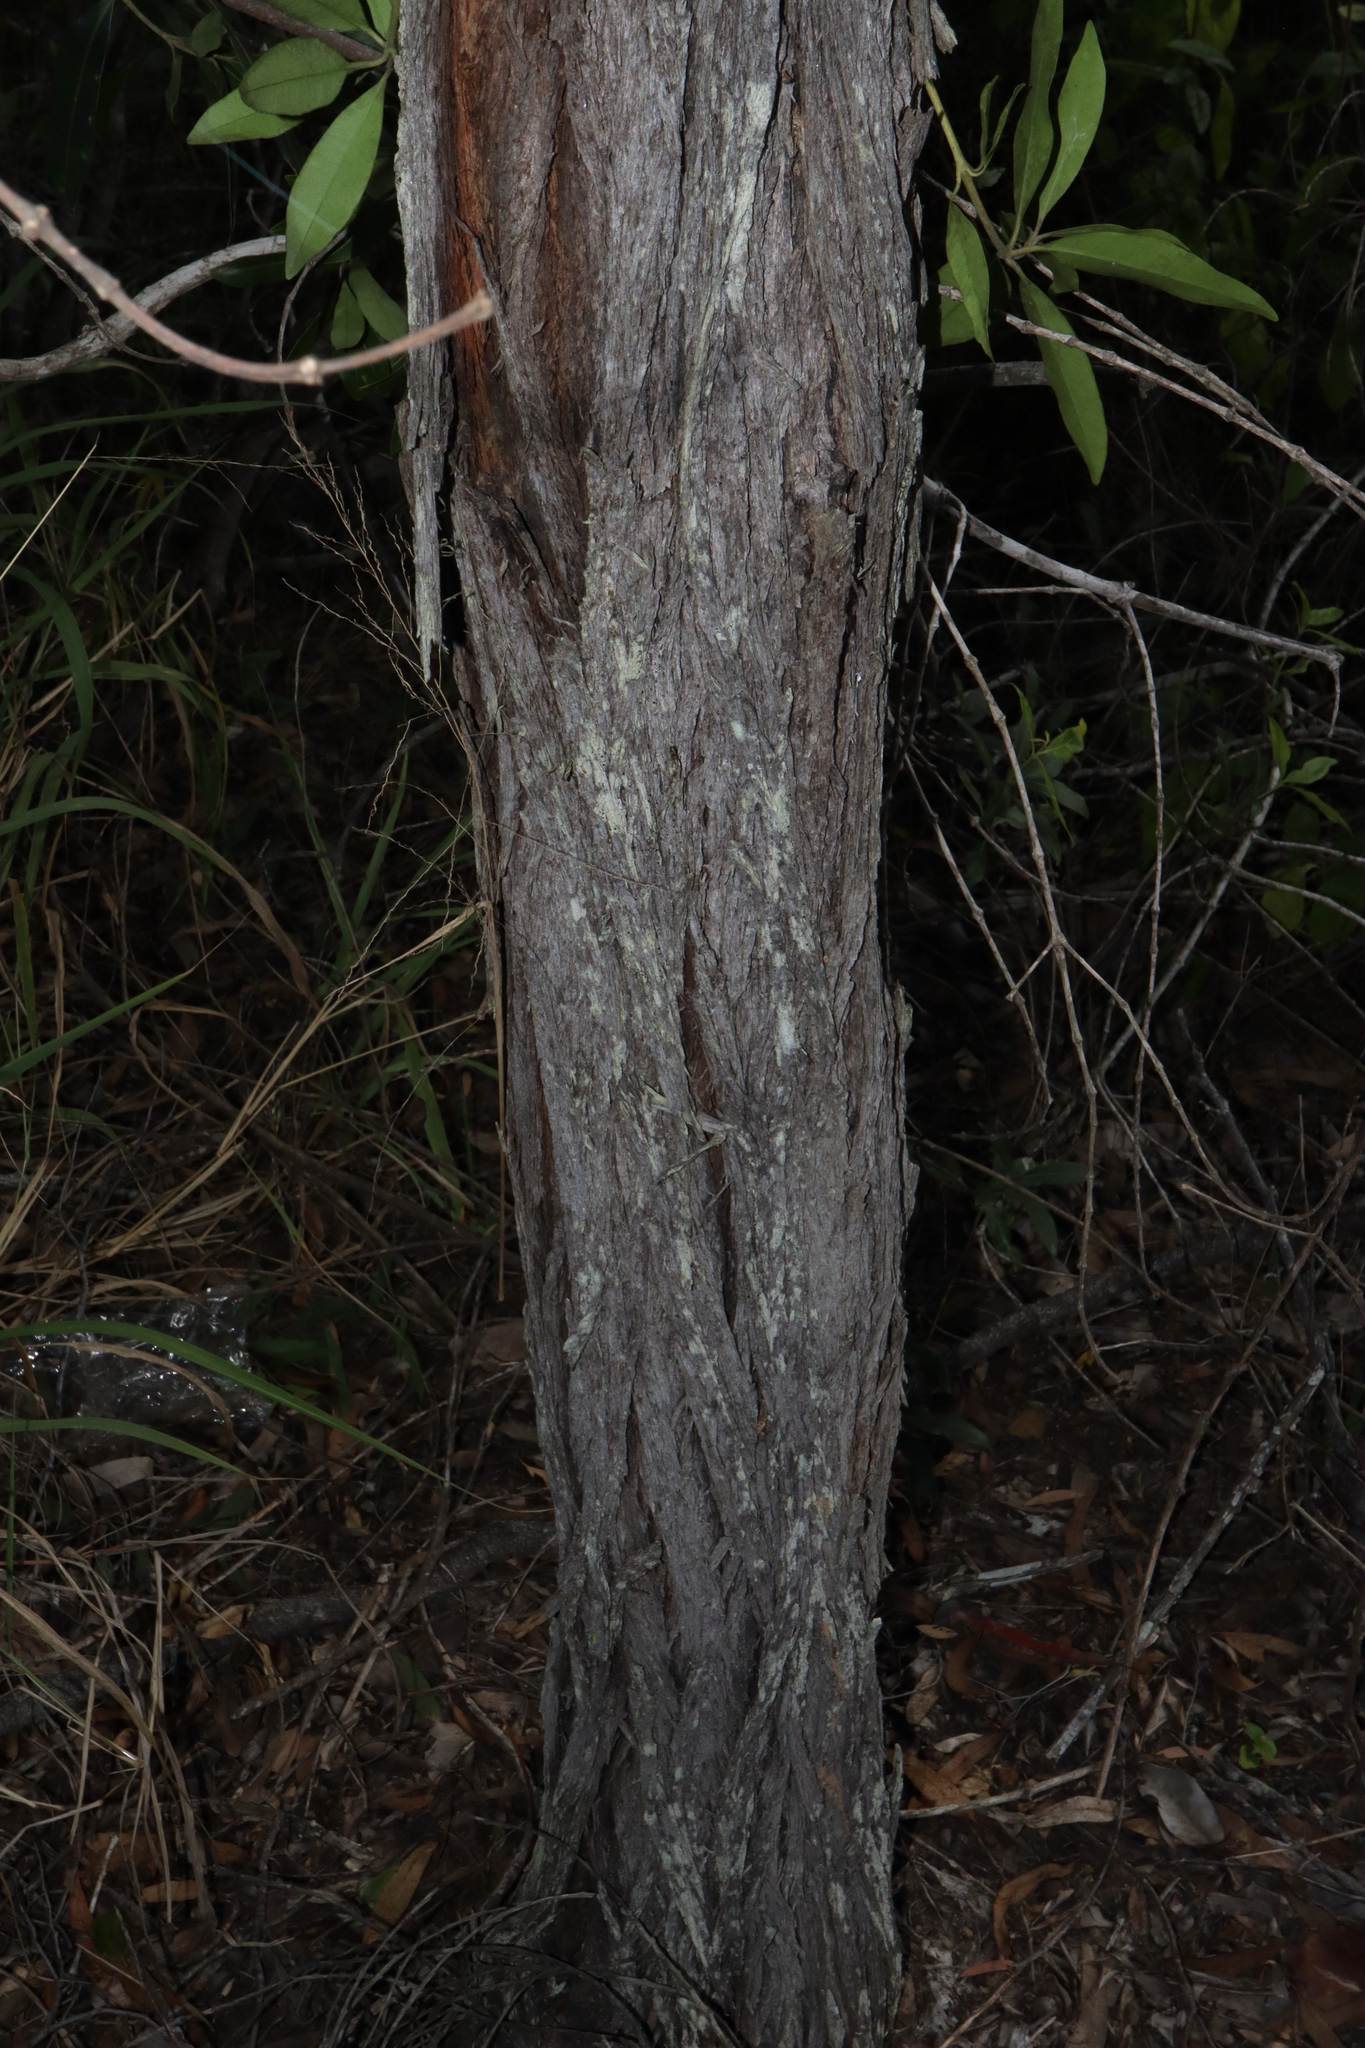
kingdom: Plantae
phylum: Tracheophyta
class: Magnoliopsida
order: Fabales
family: Fabaceae
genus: Acacia
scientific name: Acacia leptostachya
